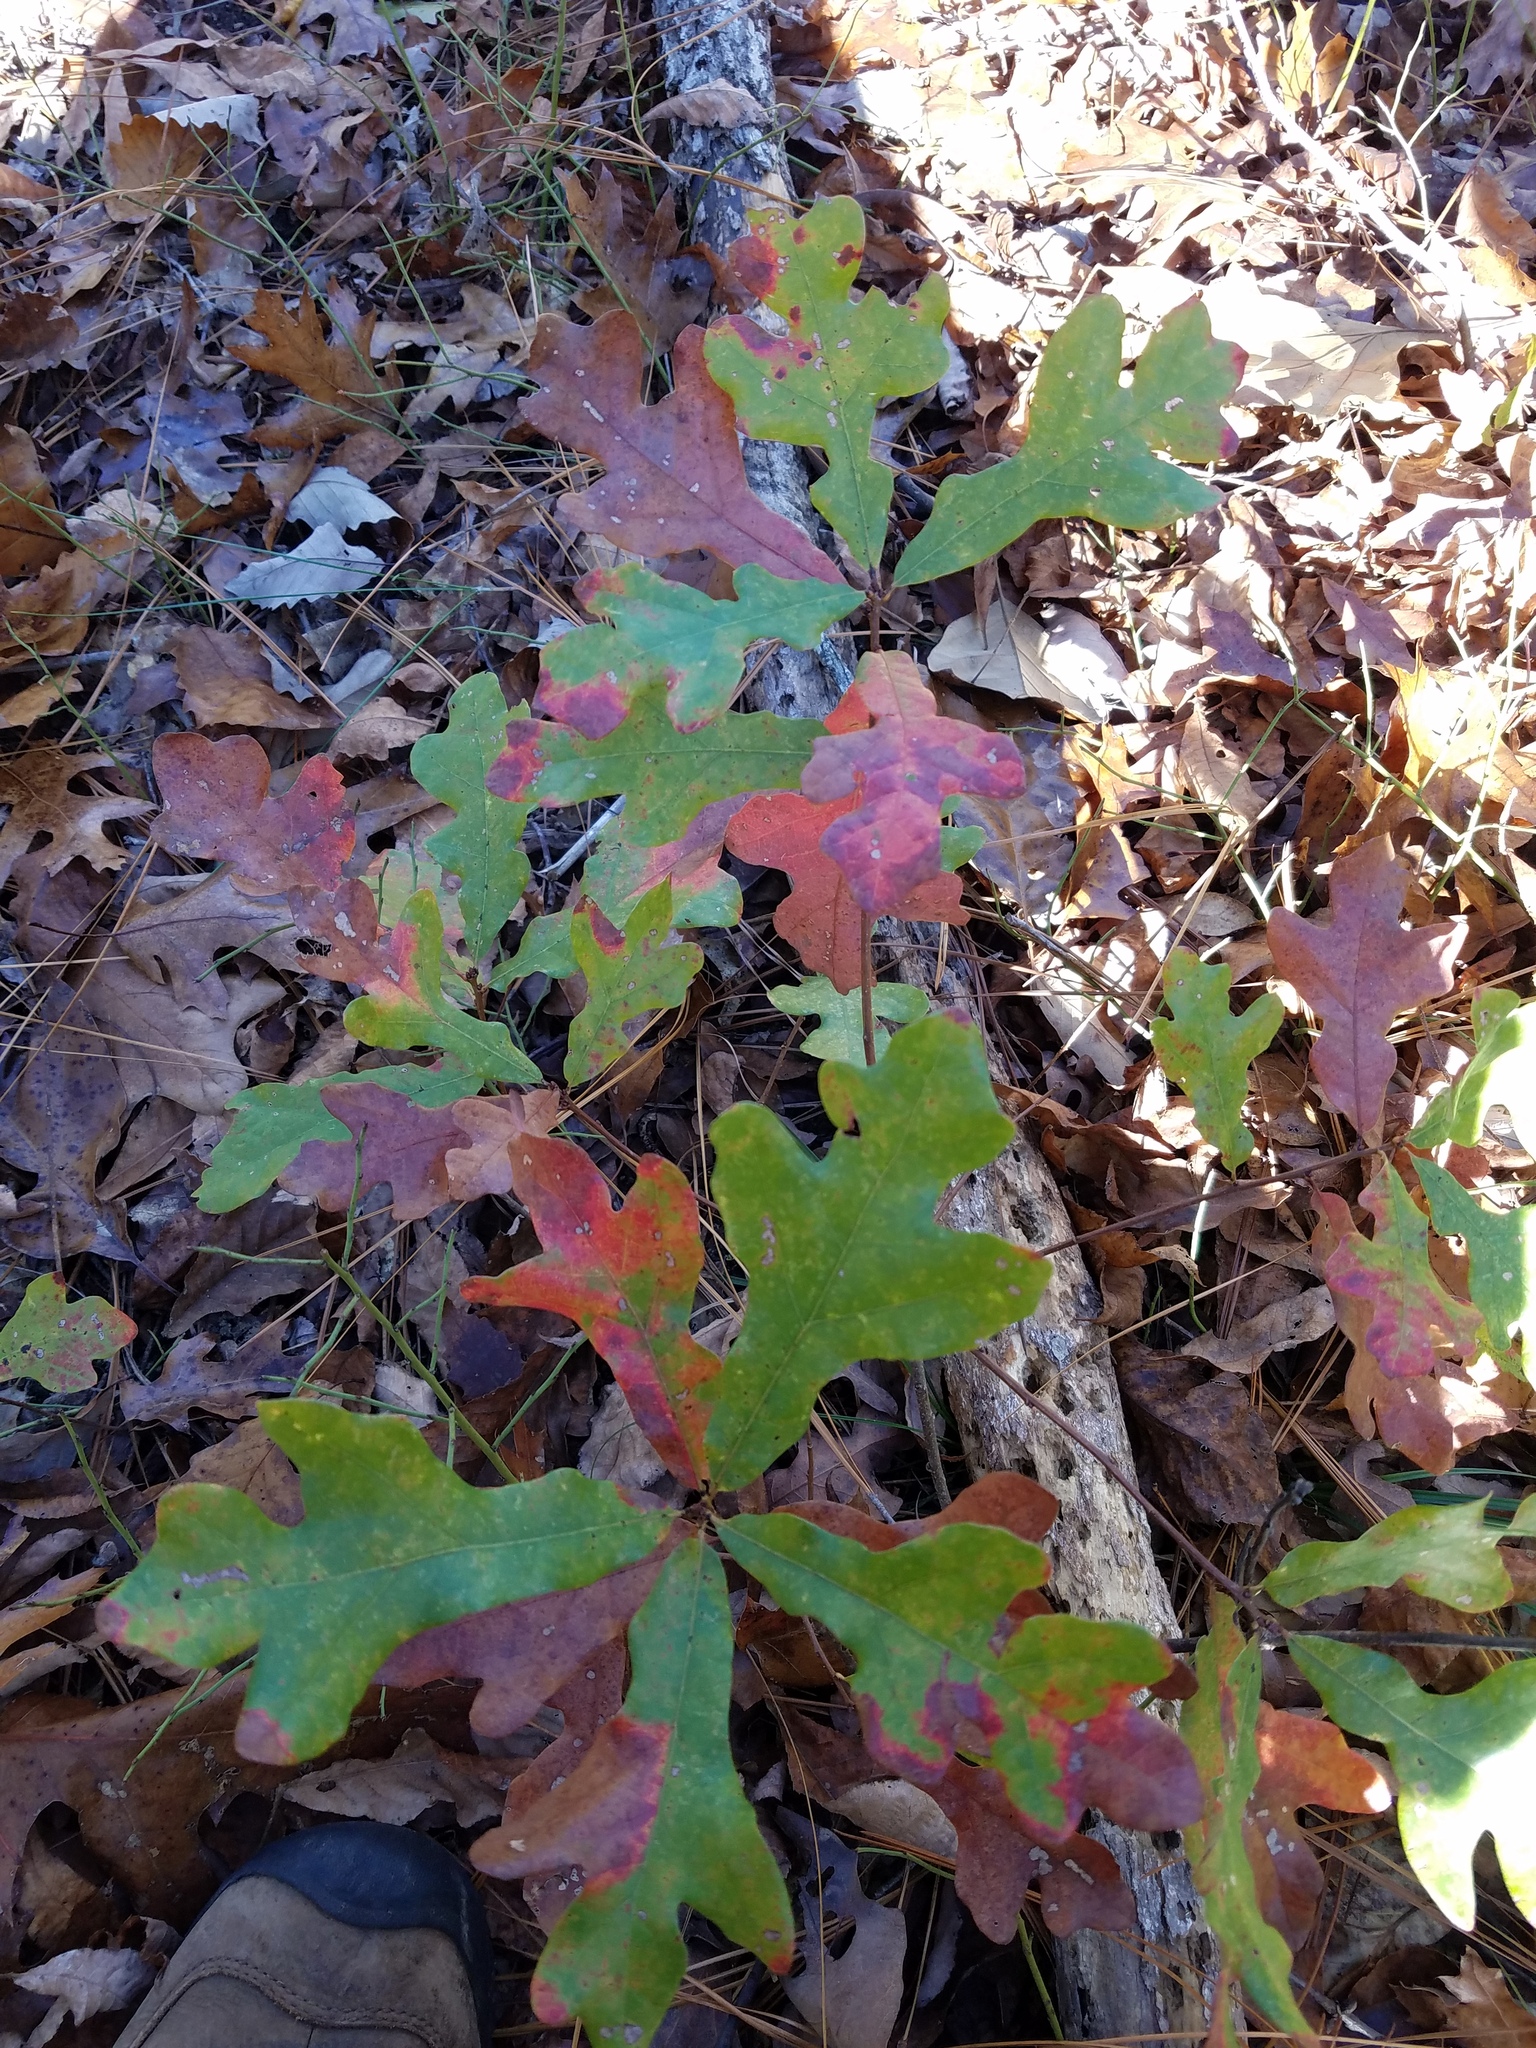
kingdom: Plantae
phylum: Tracheophyta
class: Magnoliopsida
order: Fagales
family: Fagaceae
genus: Quercus
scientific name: Quercus margaretiae
